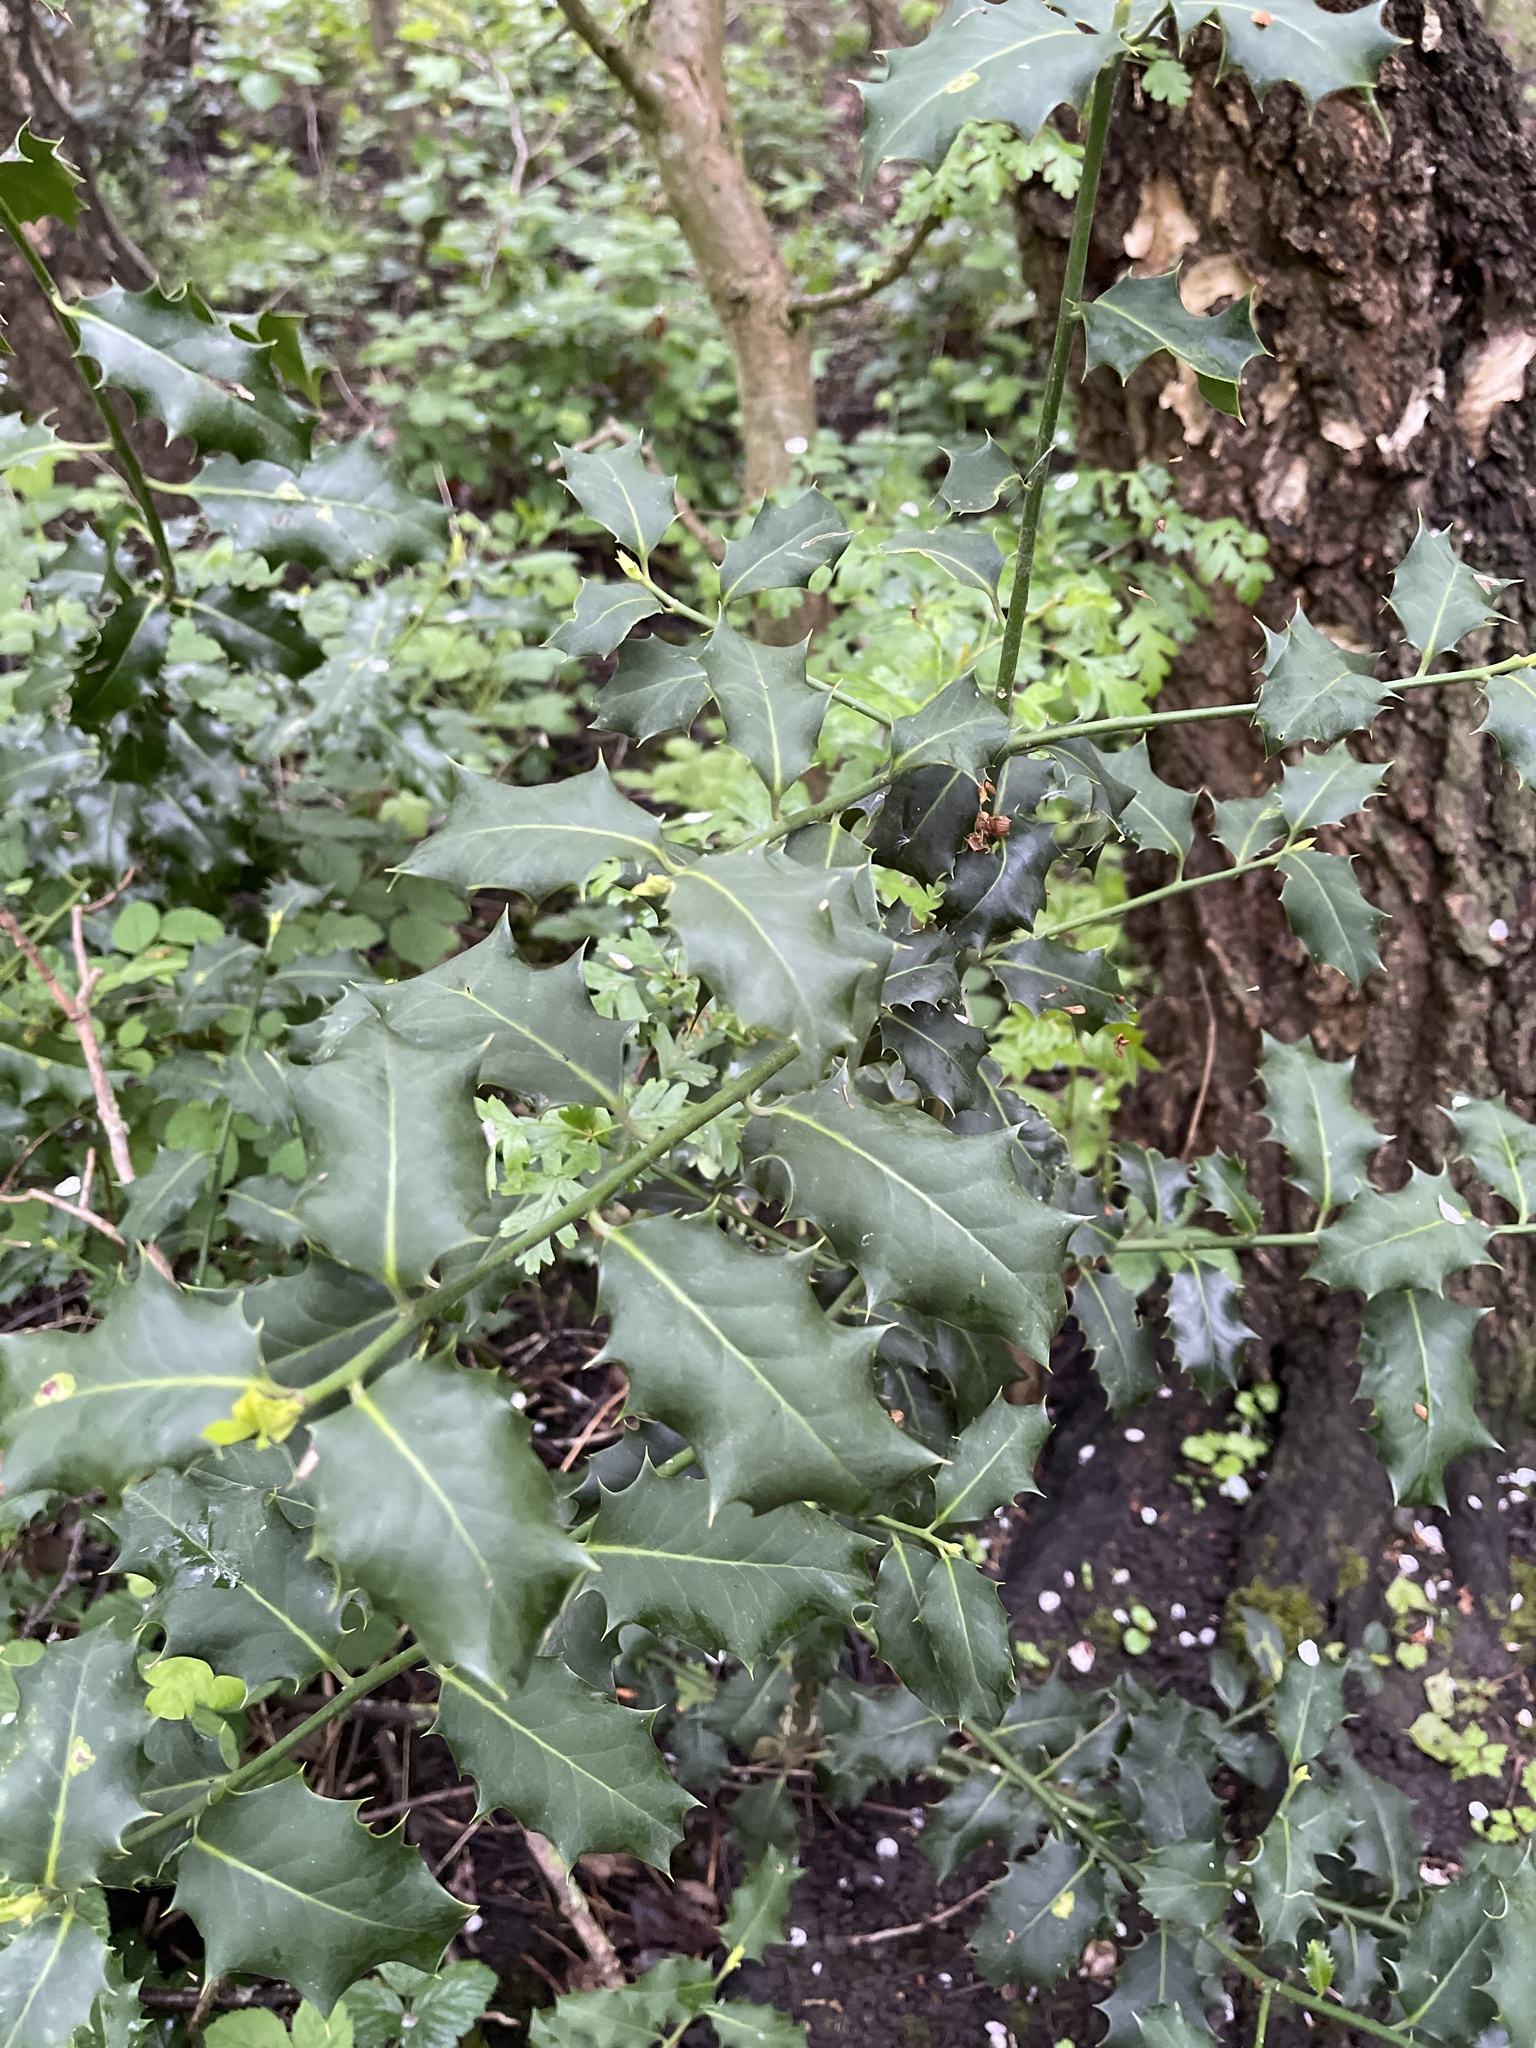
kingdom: Plantae
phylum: Tracheophyta
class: Magnoliopsida
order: Aquifoliales
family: Aquifoliaceae
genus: Ilex
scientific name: Ilex aquifolium
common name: English holly
